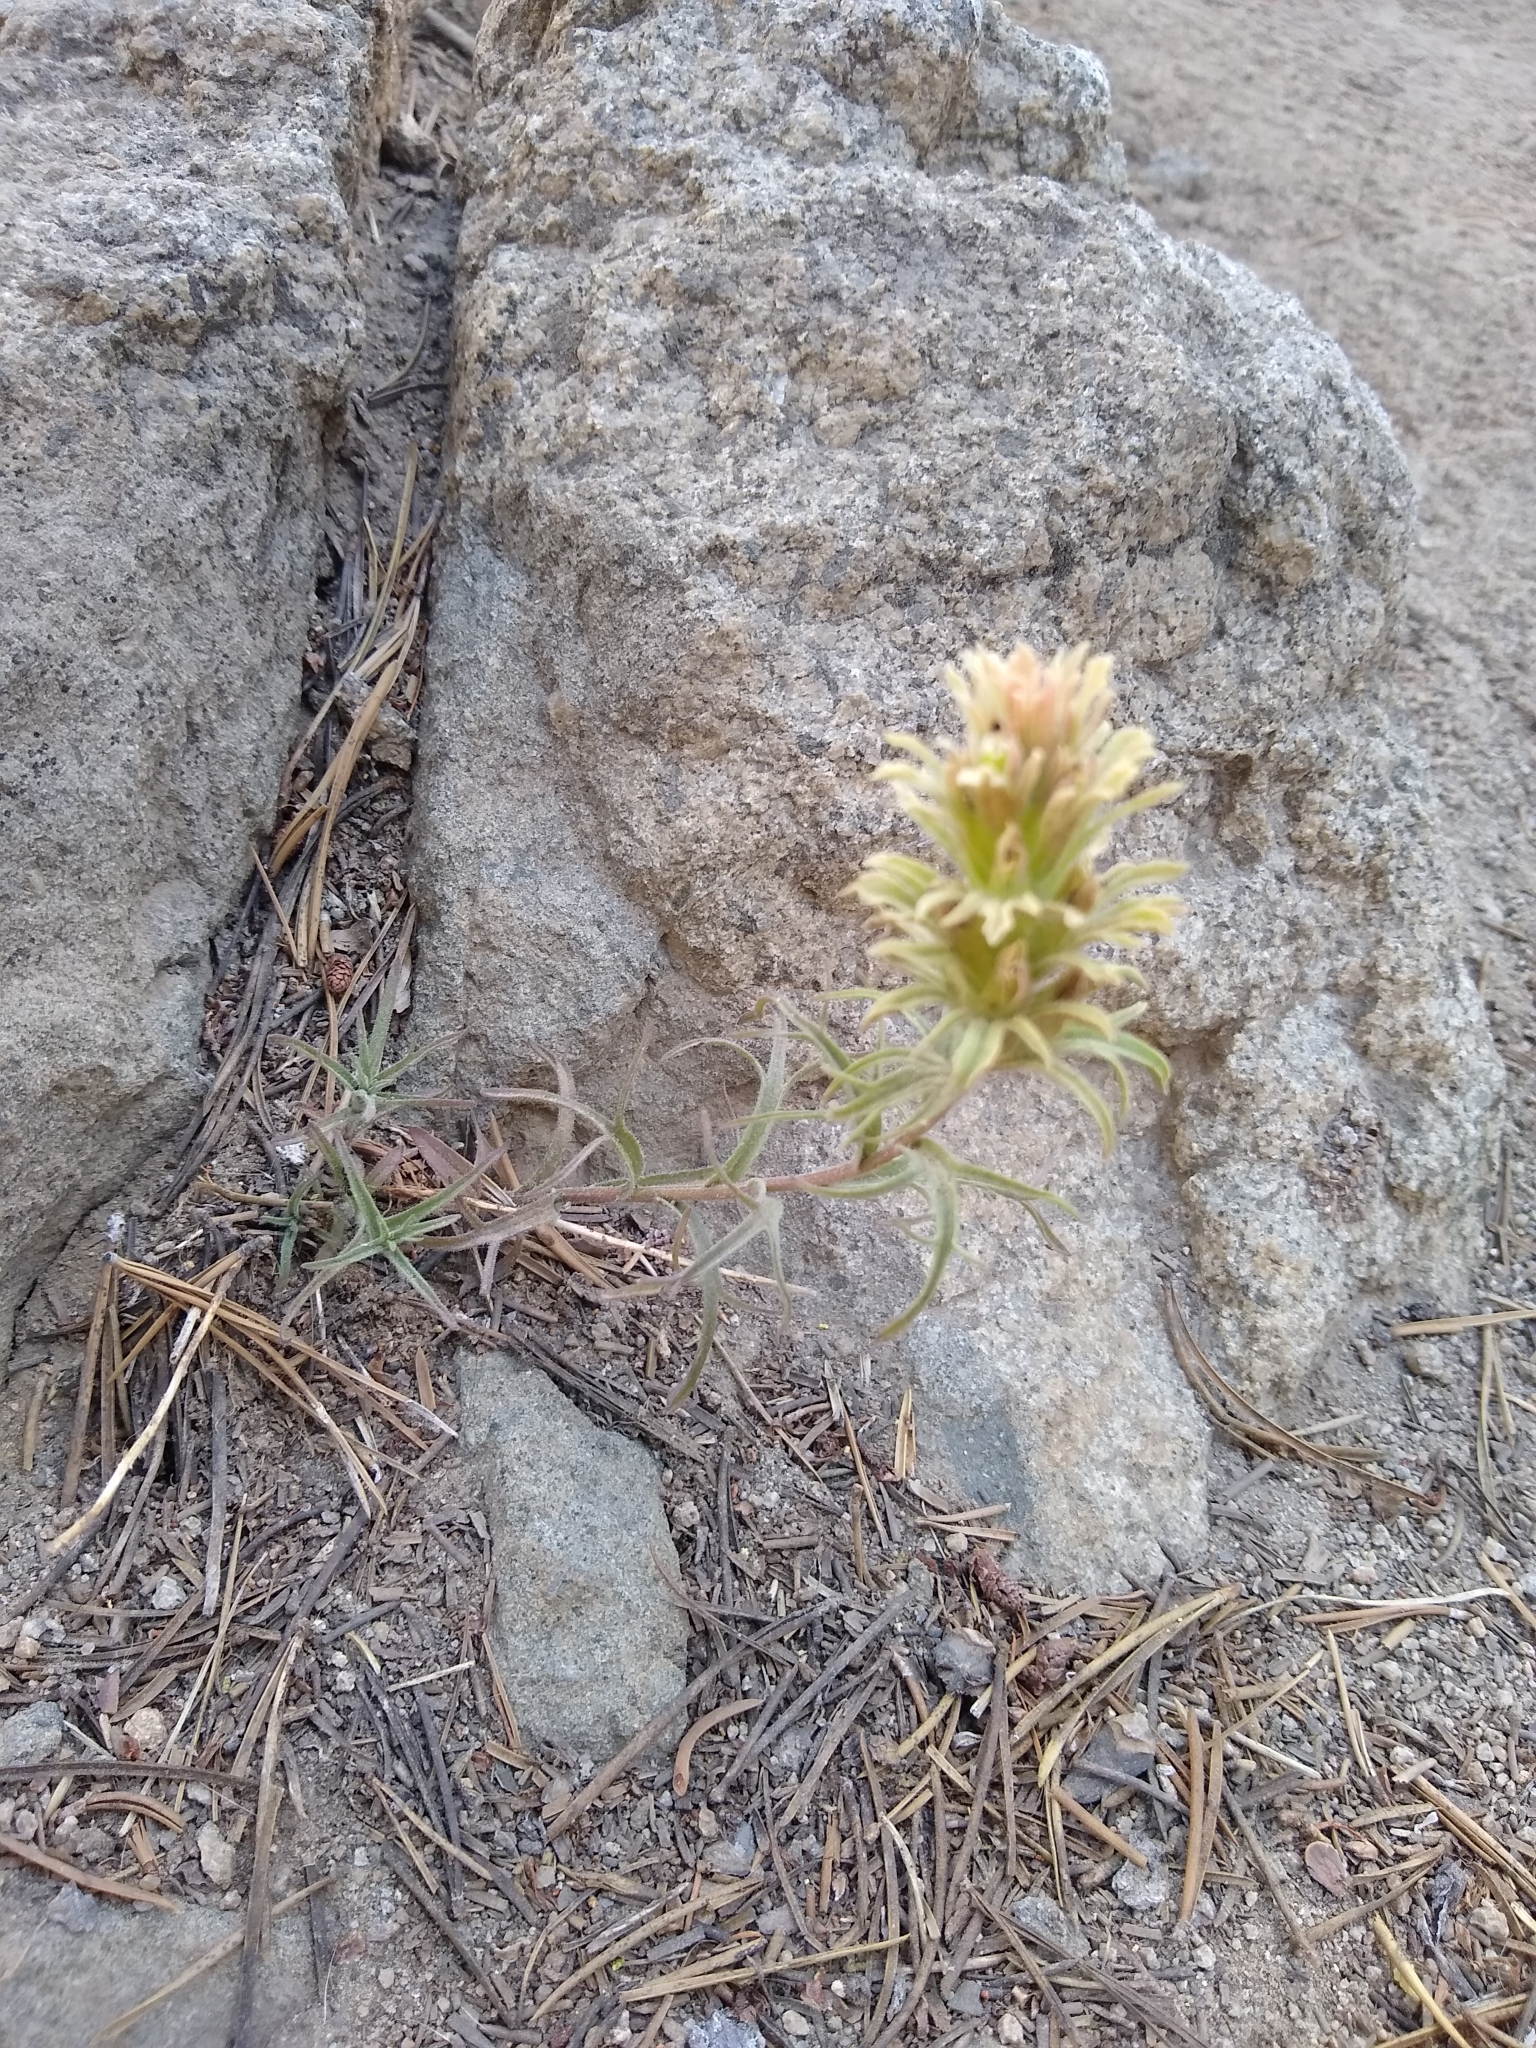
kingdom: Plantae
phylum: Tracheophyta
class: Magnoliopsida
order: Lamiales
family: Orobanchaceae
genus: Castilleja
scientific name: Castilleja nana
